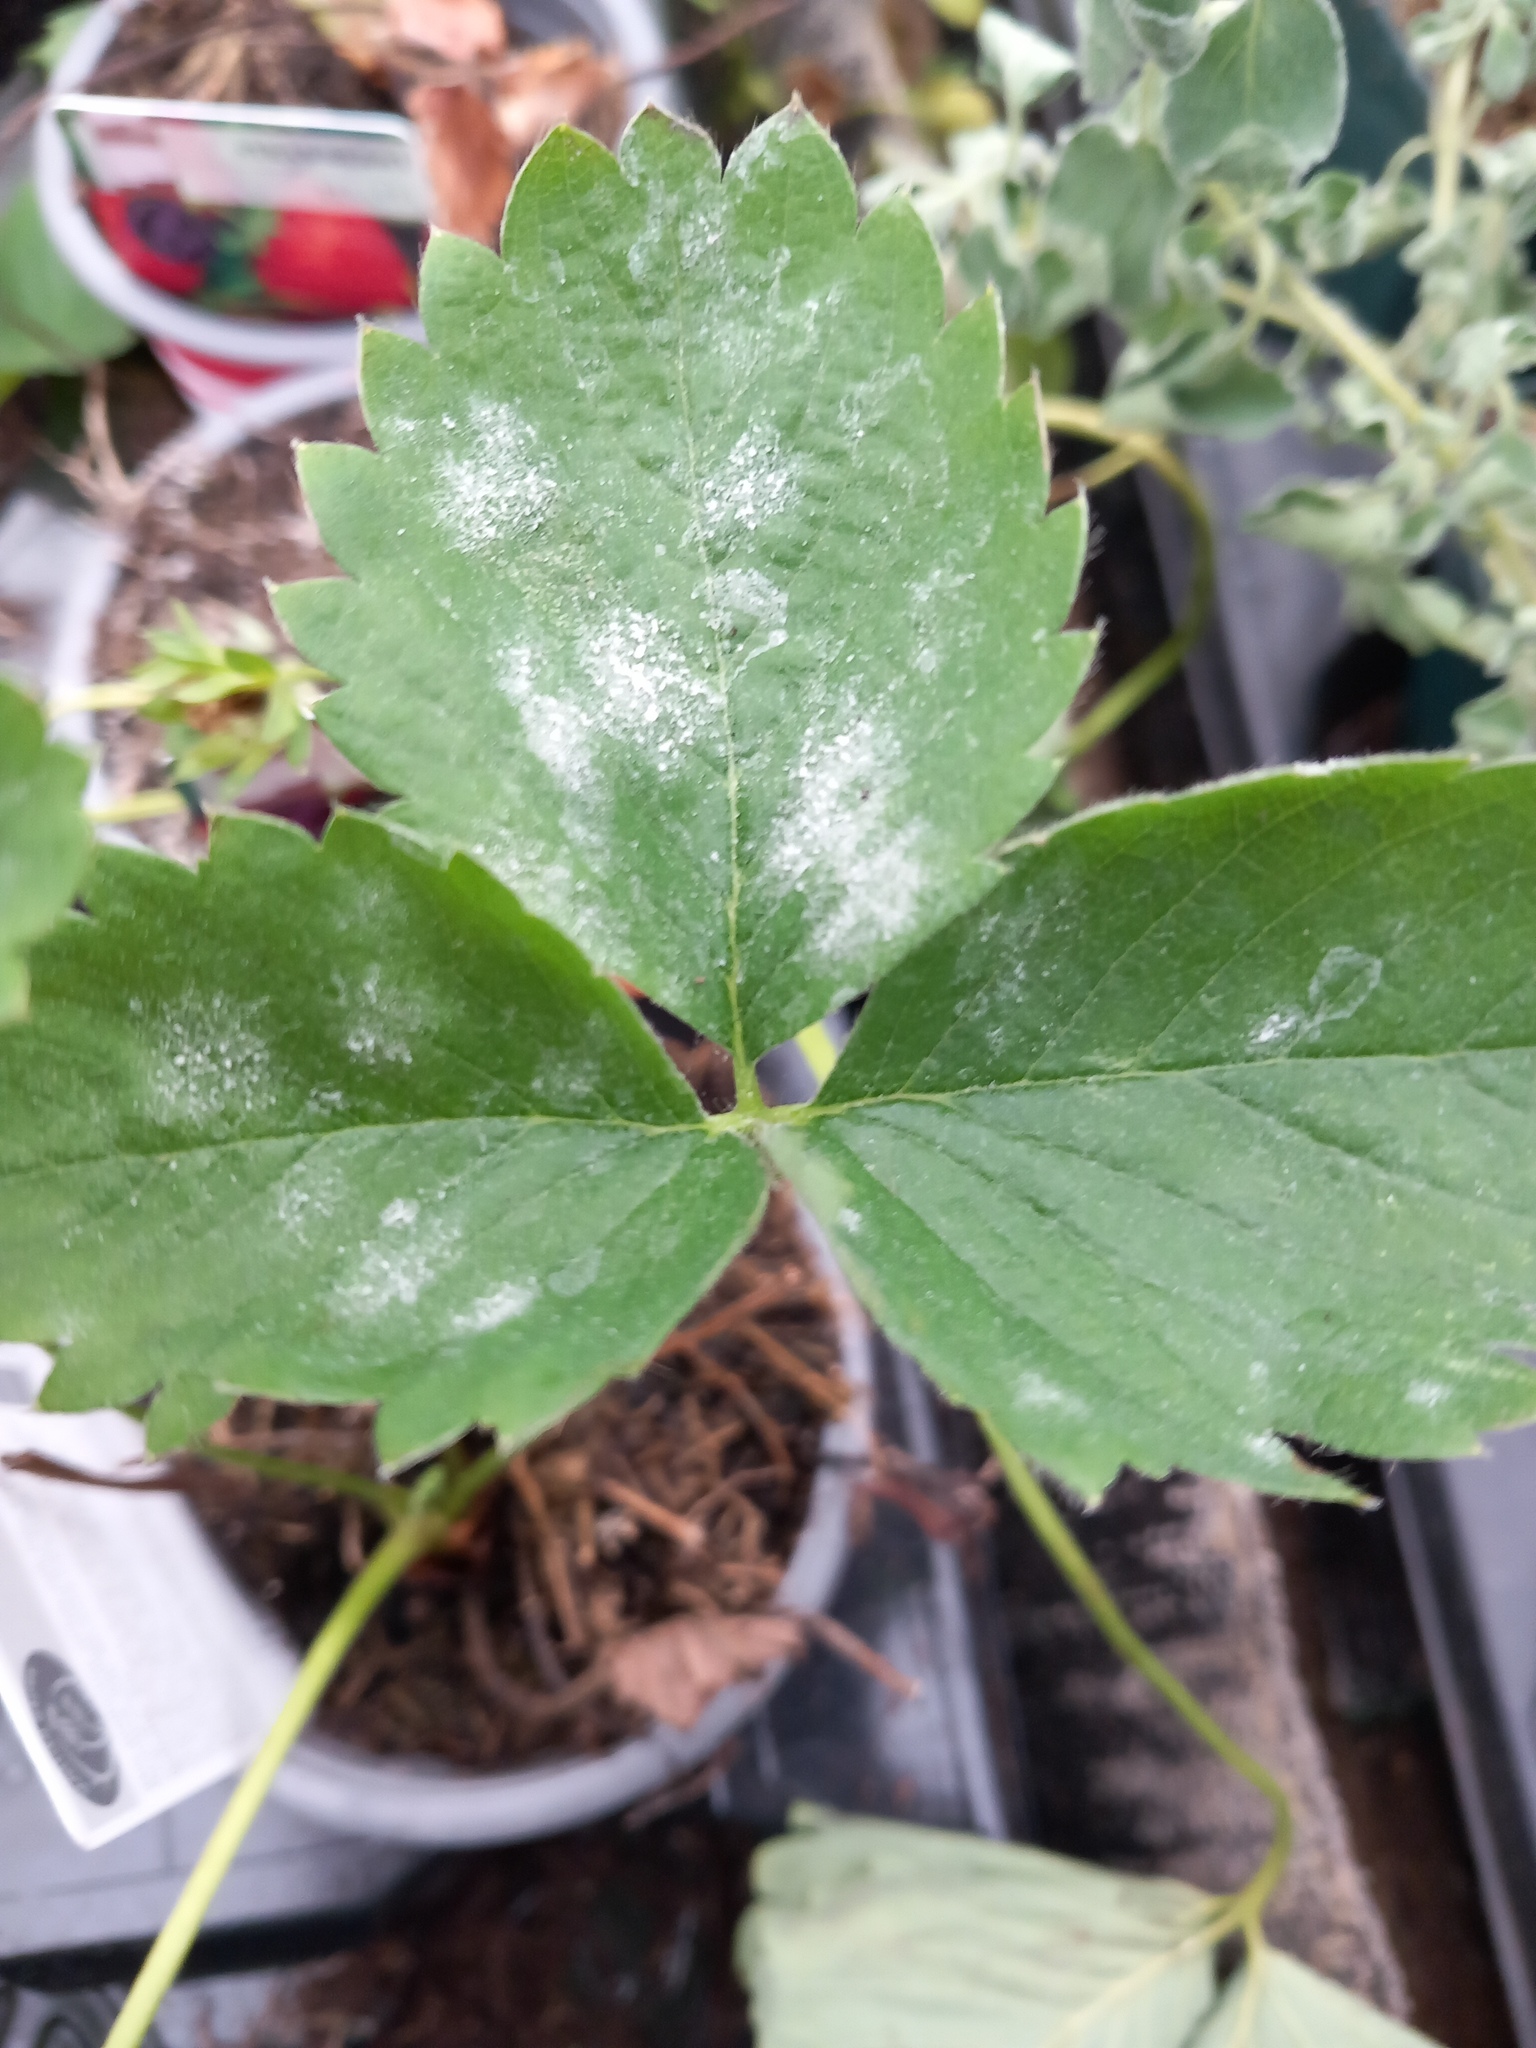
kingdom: Fungi
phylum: Ascomycota
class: Leotiomycetes
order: Helotiales
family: Erysiphaceae
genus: Podosphaera
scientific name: Podosphaera aphanis
